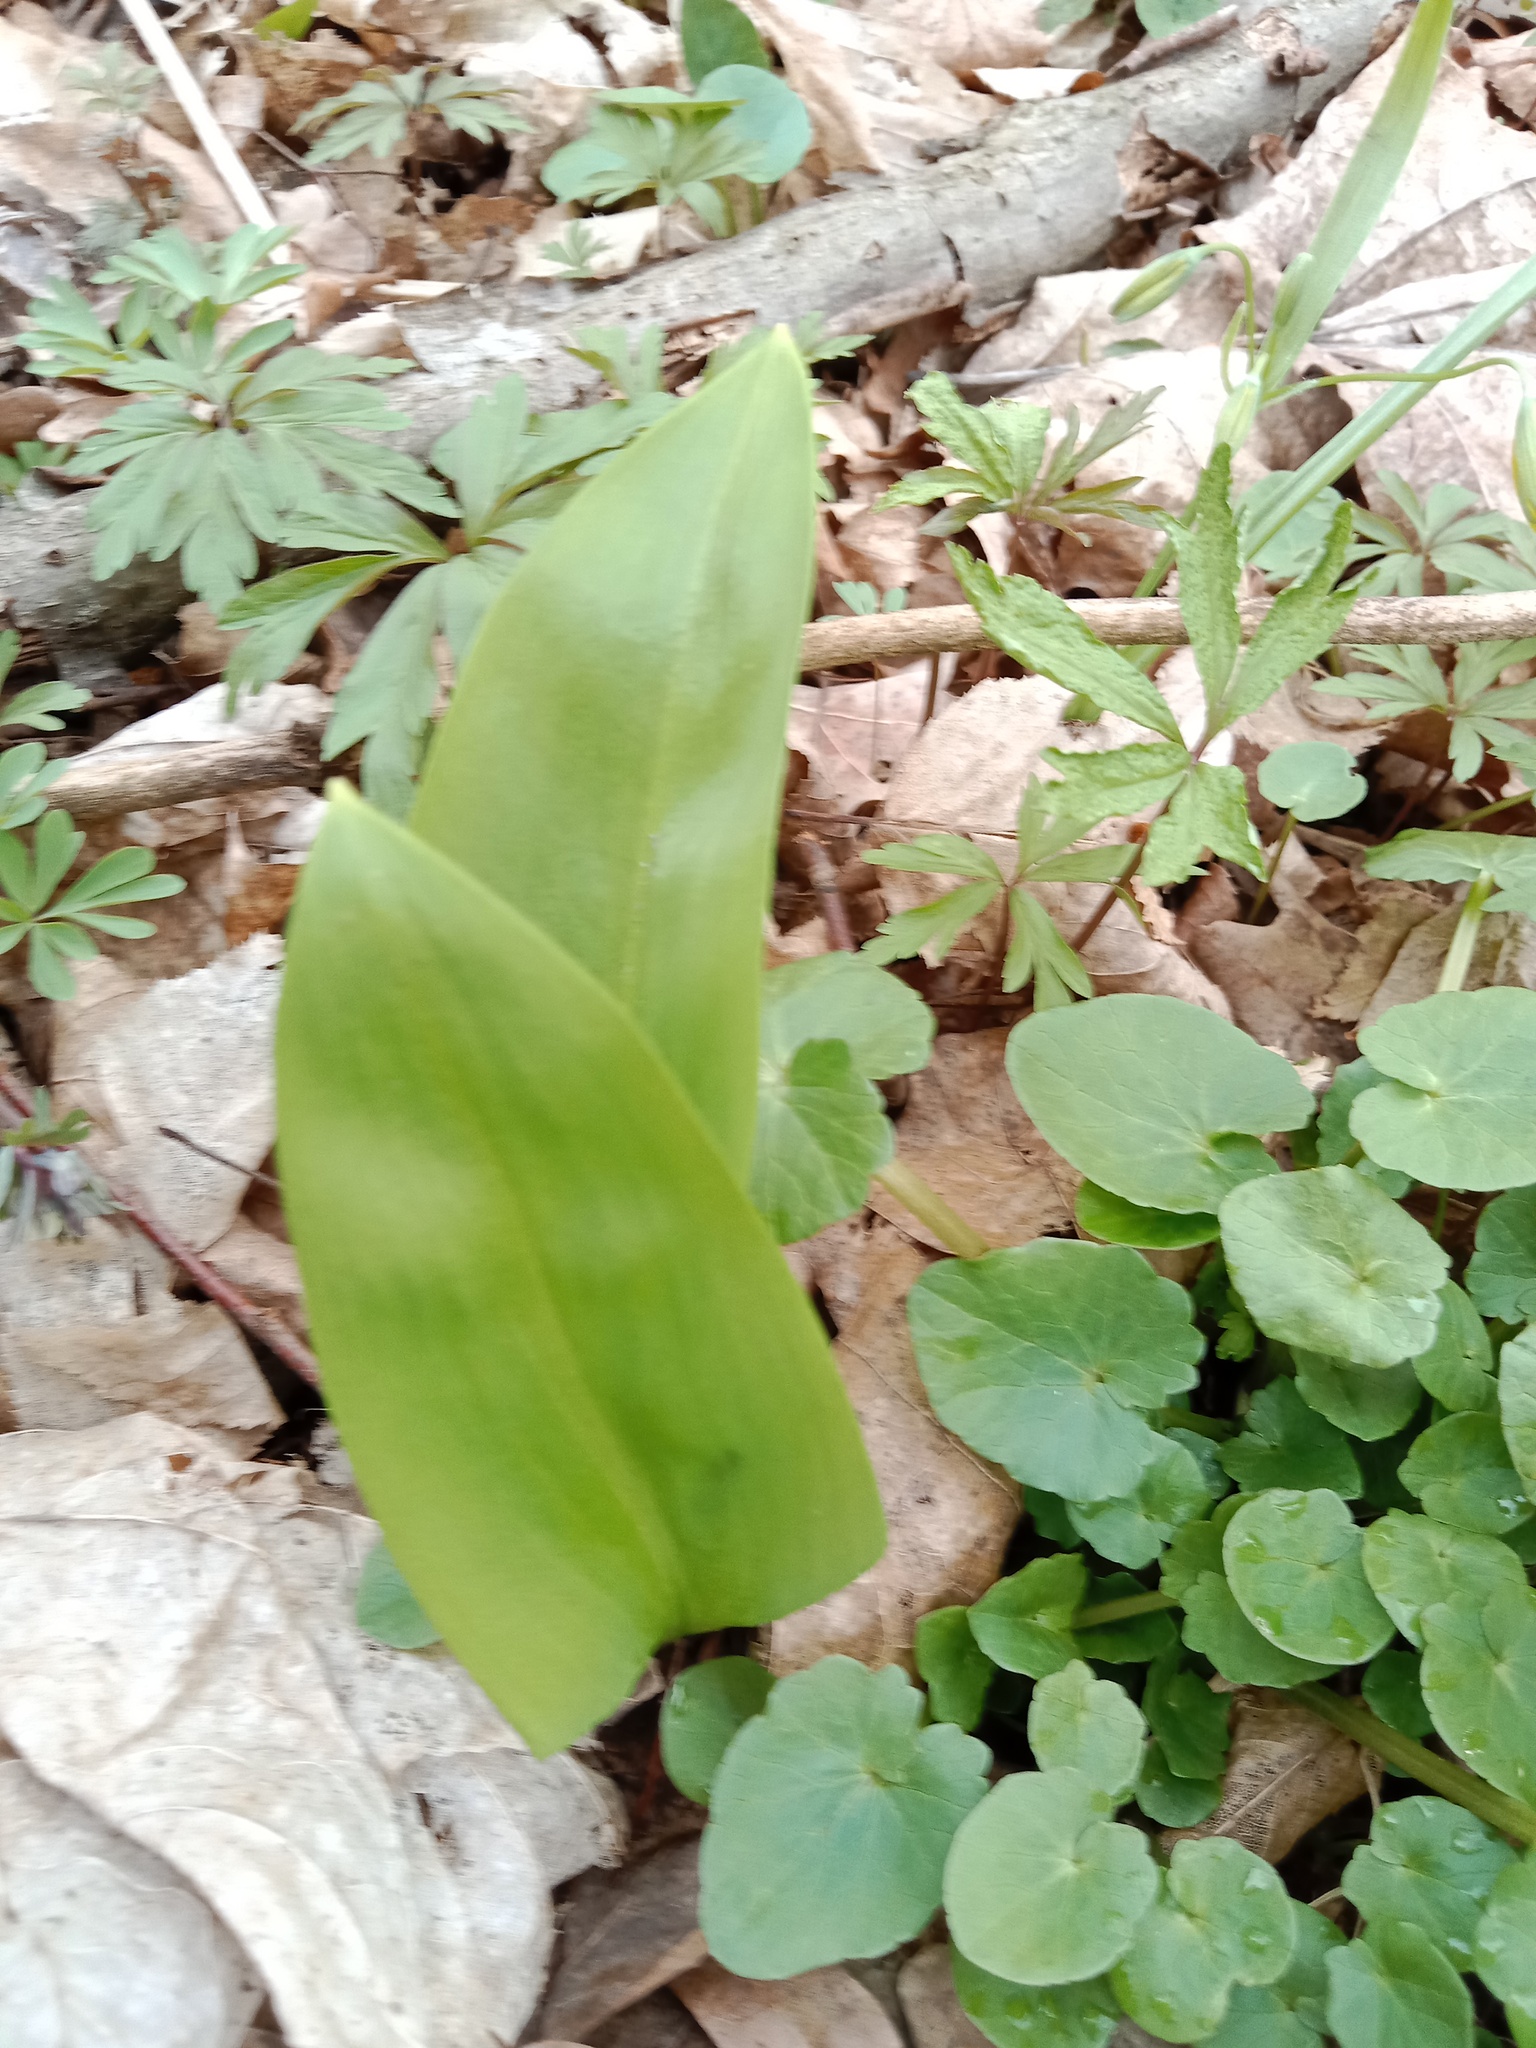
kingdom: Plantae
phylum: Tracheophyta
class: Liliopsida
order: Asparagales
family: Amaryllidaceae
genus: Allium
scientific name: Allium ursinum
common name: Ramsons
